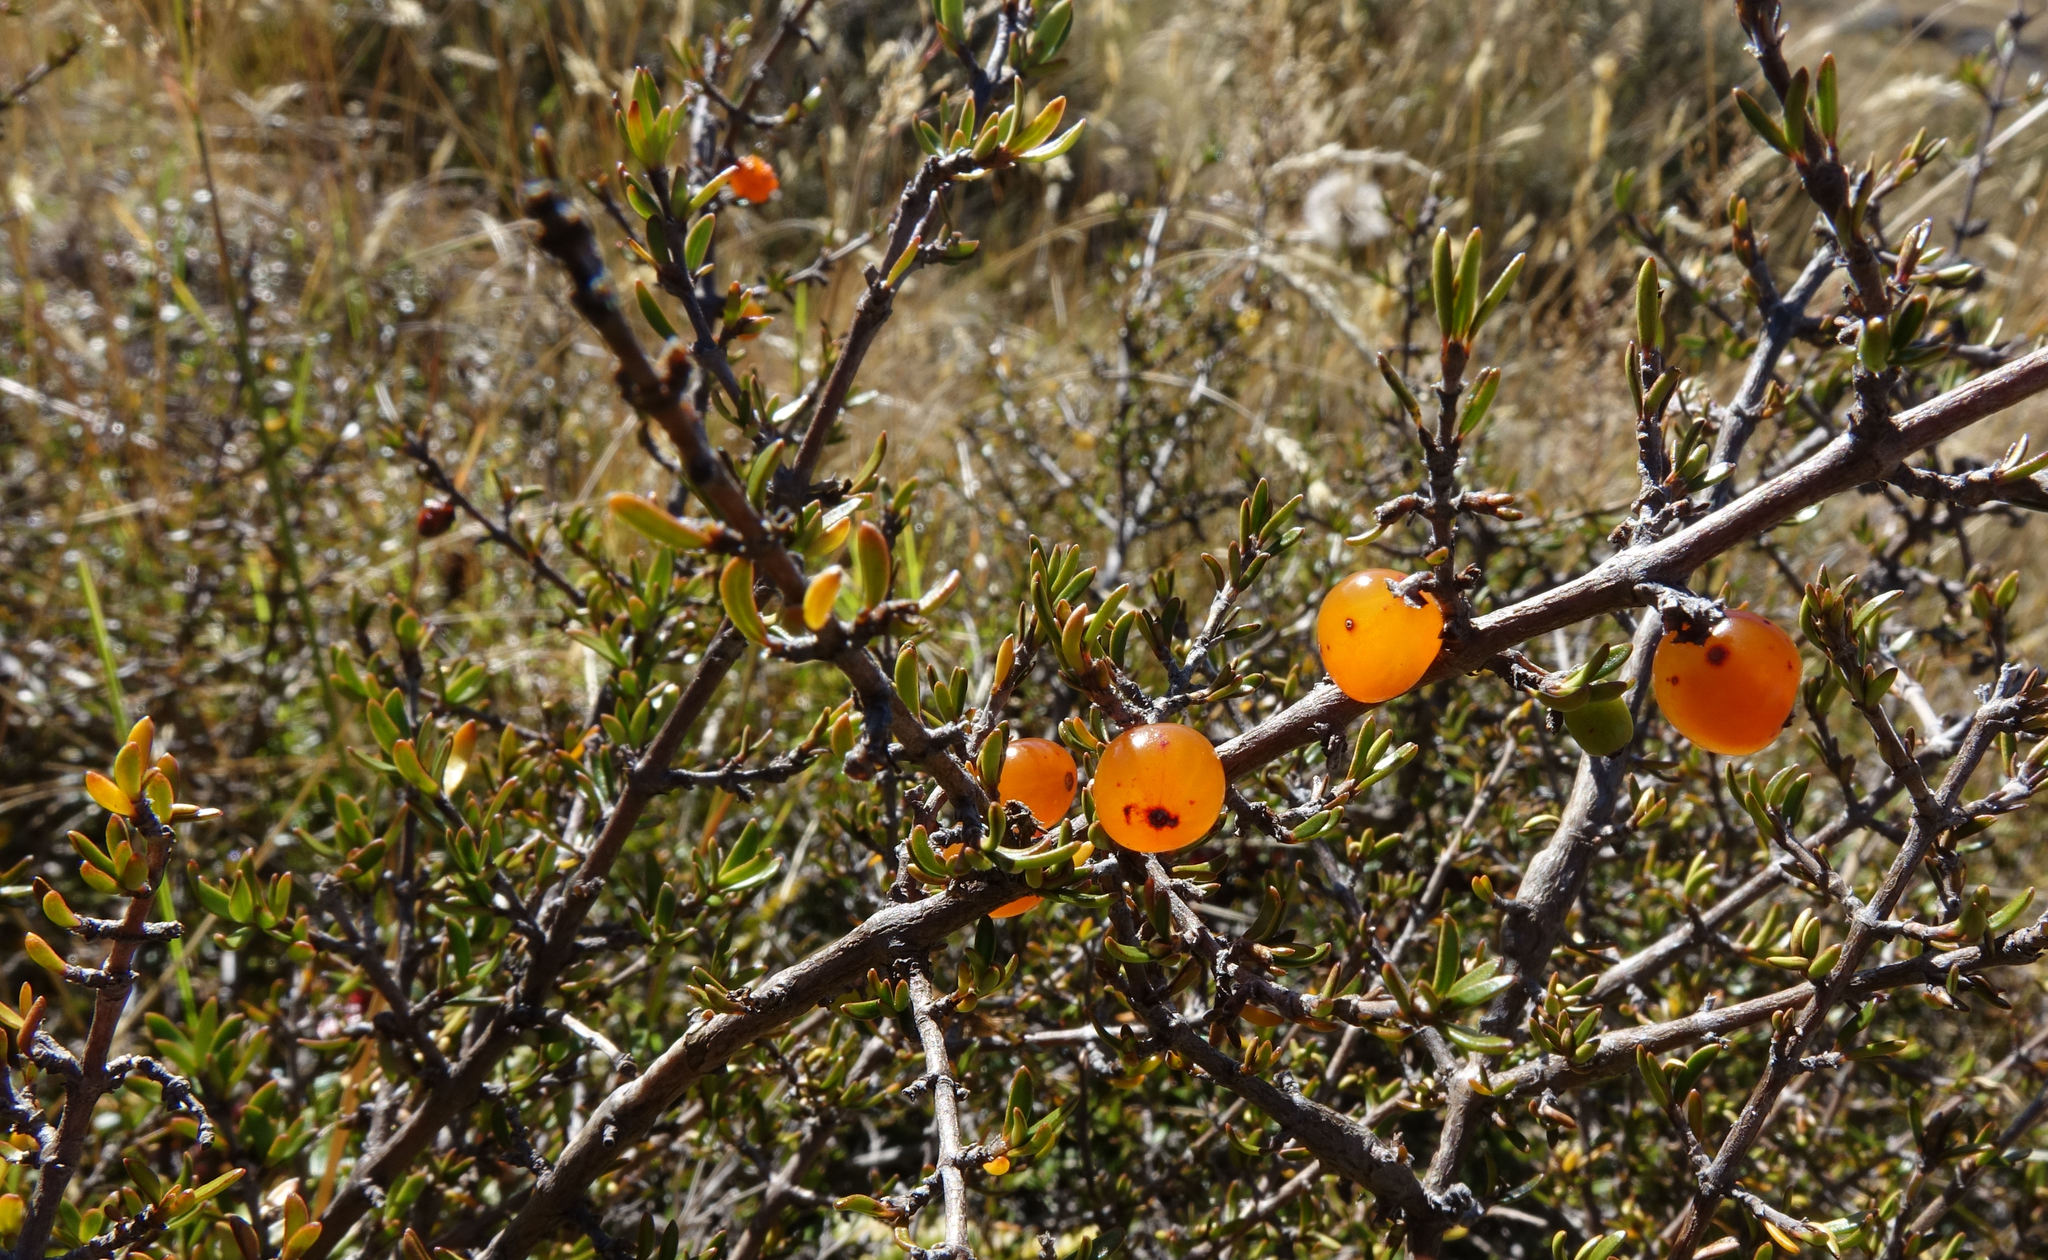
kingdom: Plantae
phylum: Tracheophyta
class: Magnoliopsida
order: Gentianales
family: Rubiaceae
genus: Coprosma
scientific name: Coprosma cheesemanii
